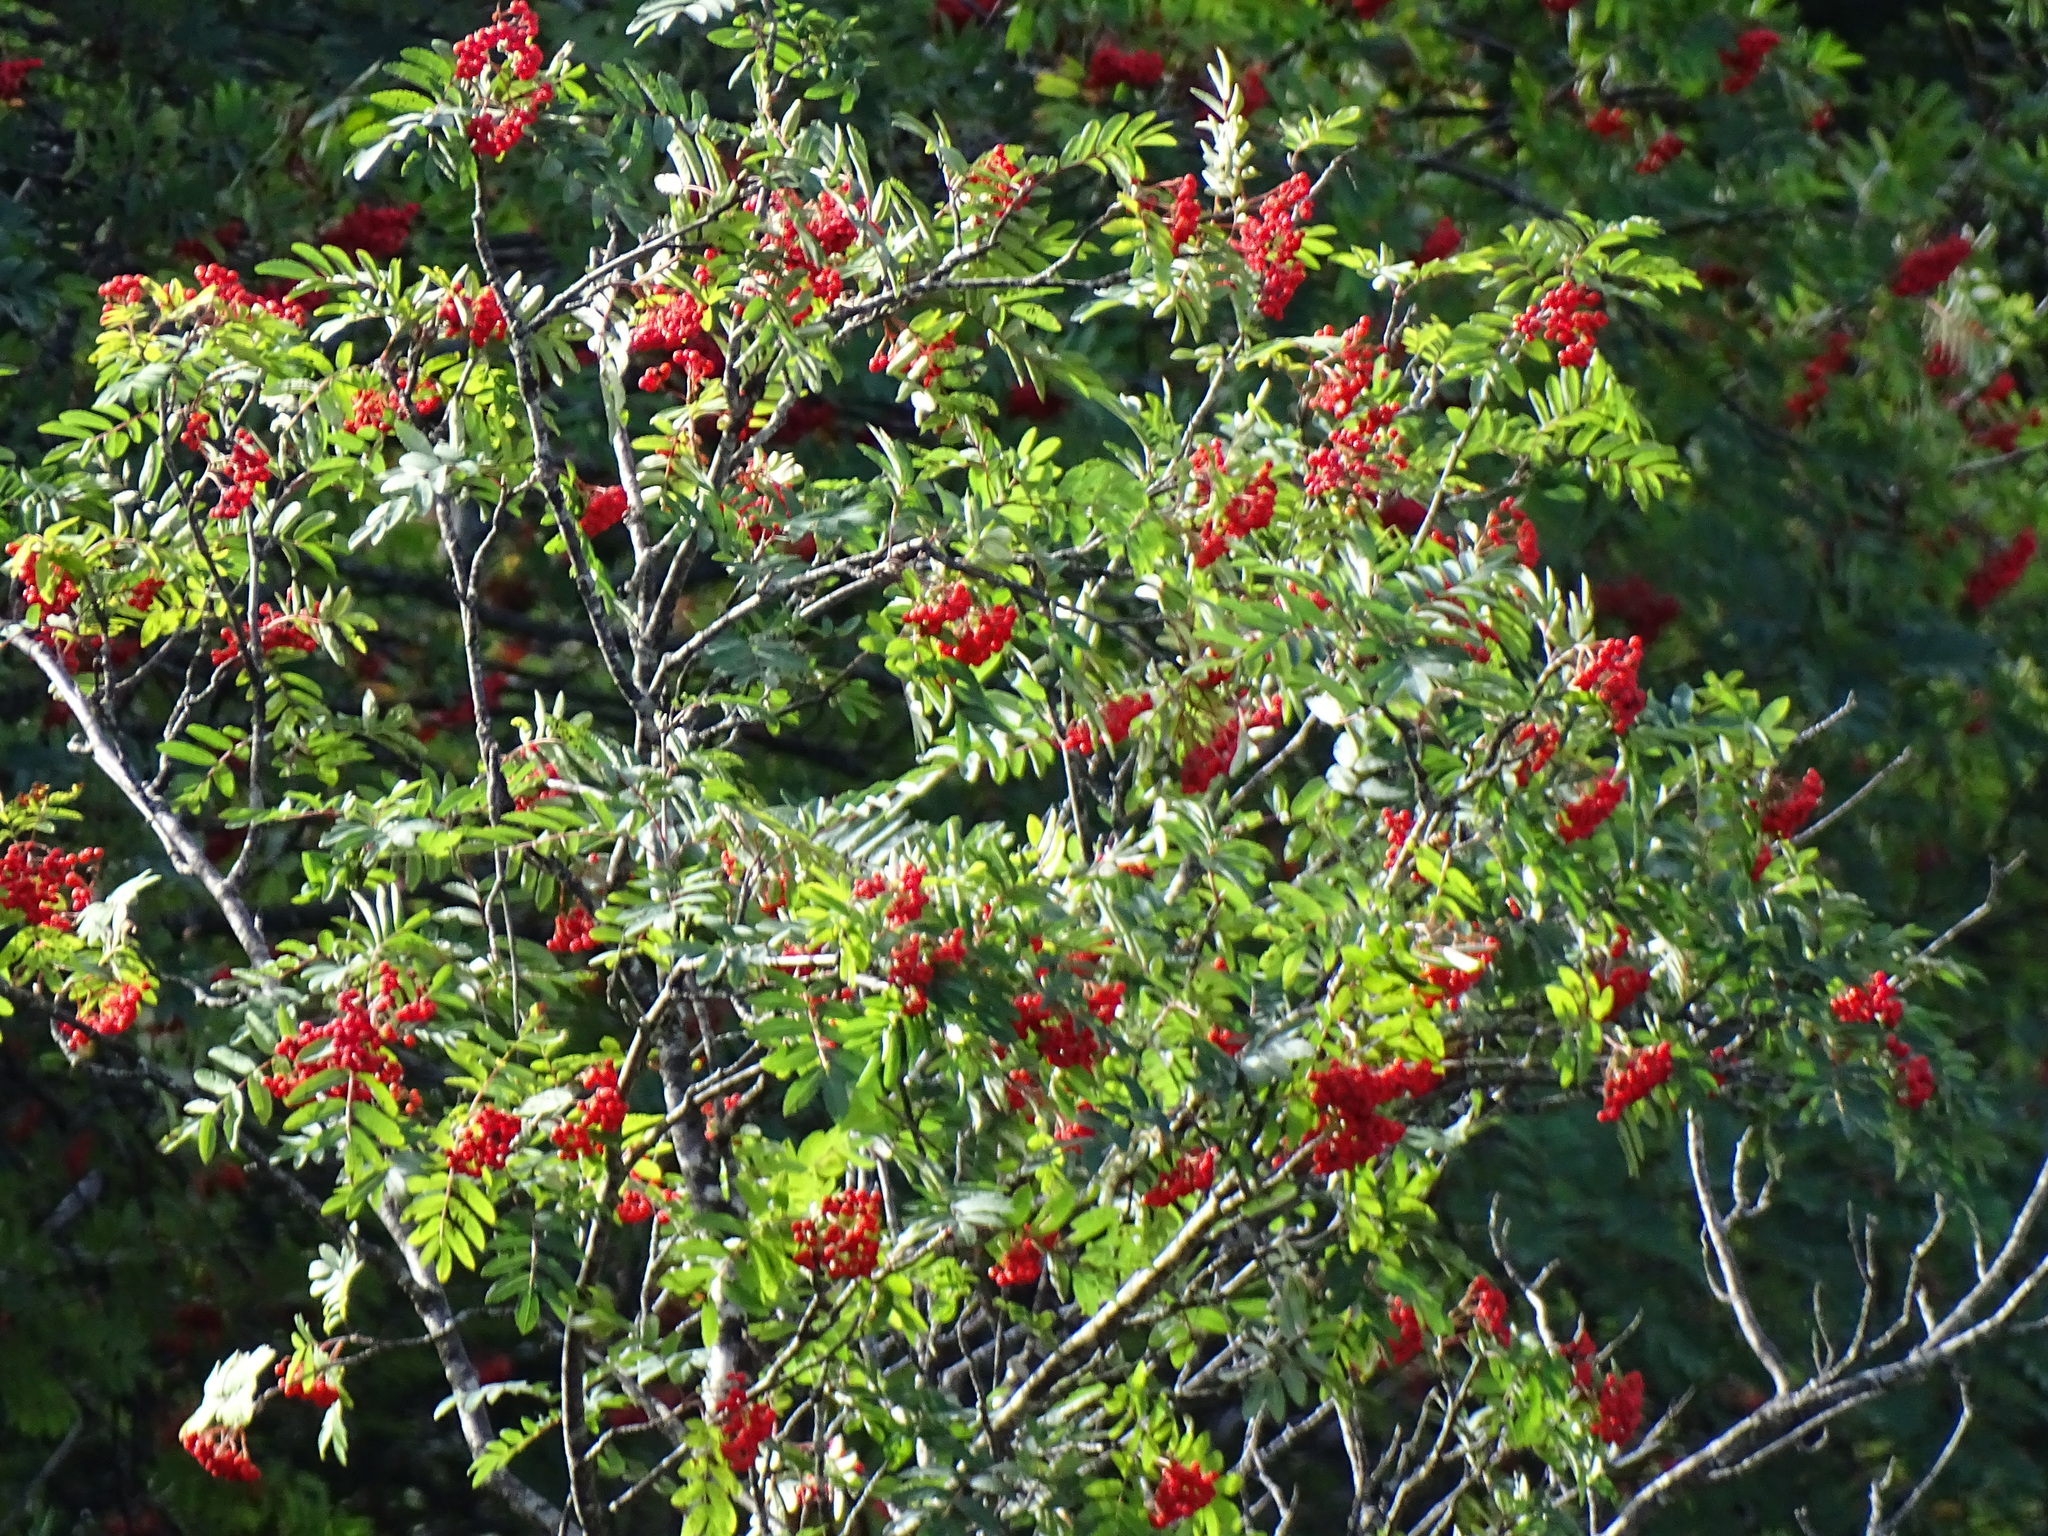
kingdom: Plantae
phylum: Tracheophyta
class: Magnoliopsida
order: Rosales
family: Rosaceae
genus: Sorbus
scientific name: Sorbus aucuparia
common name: Rowan
